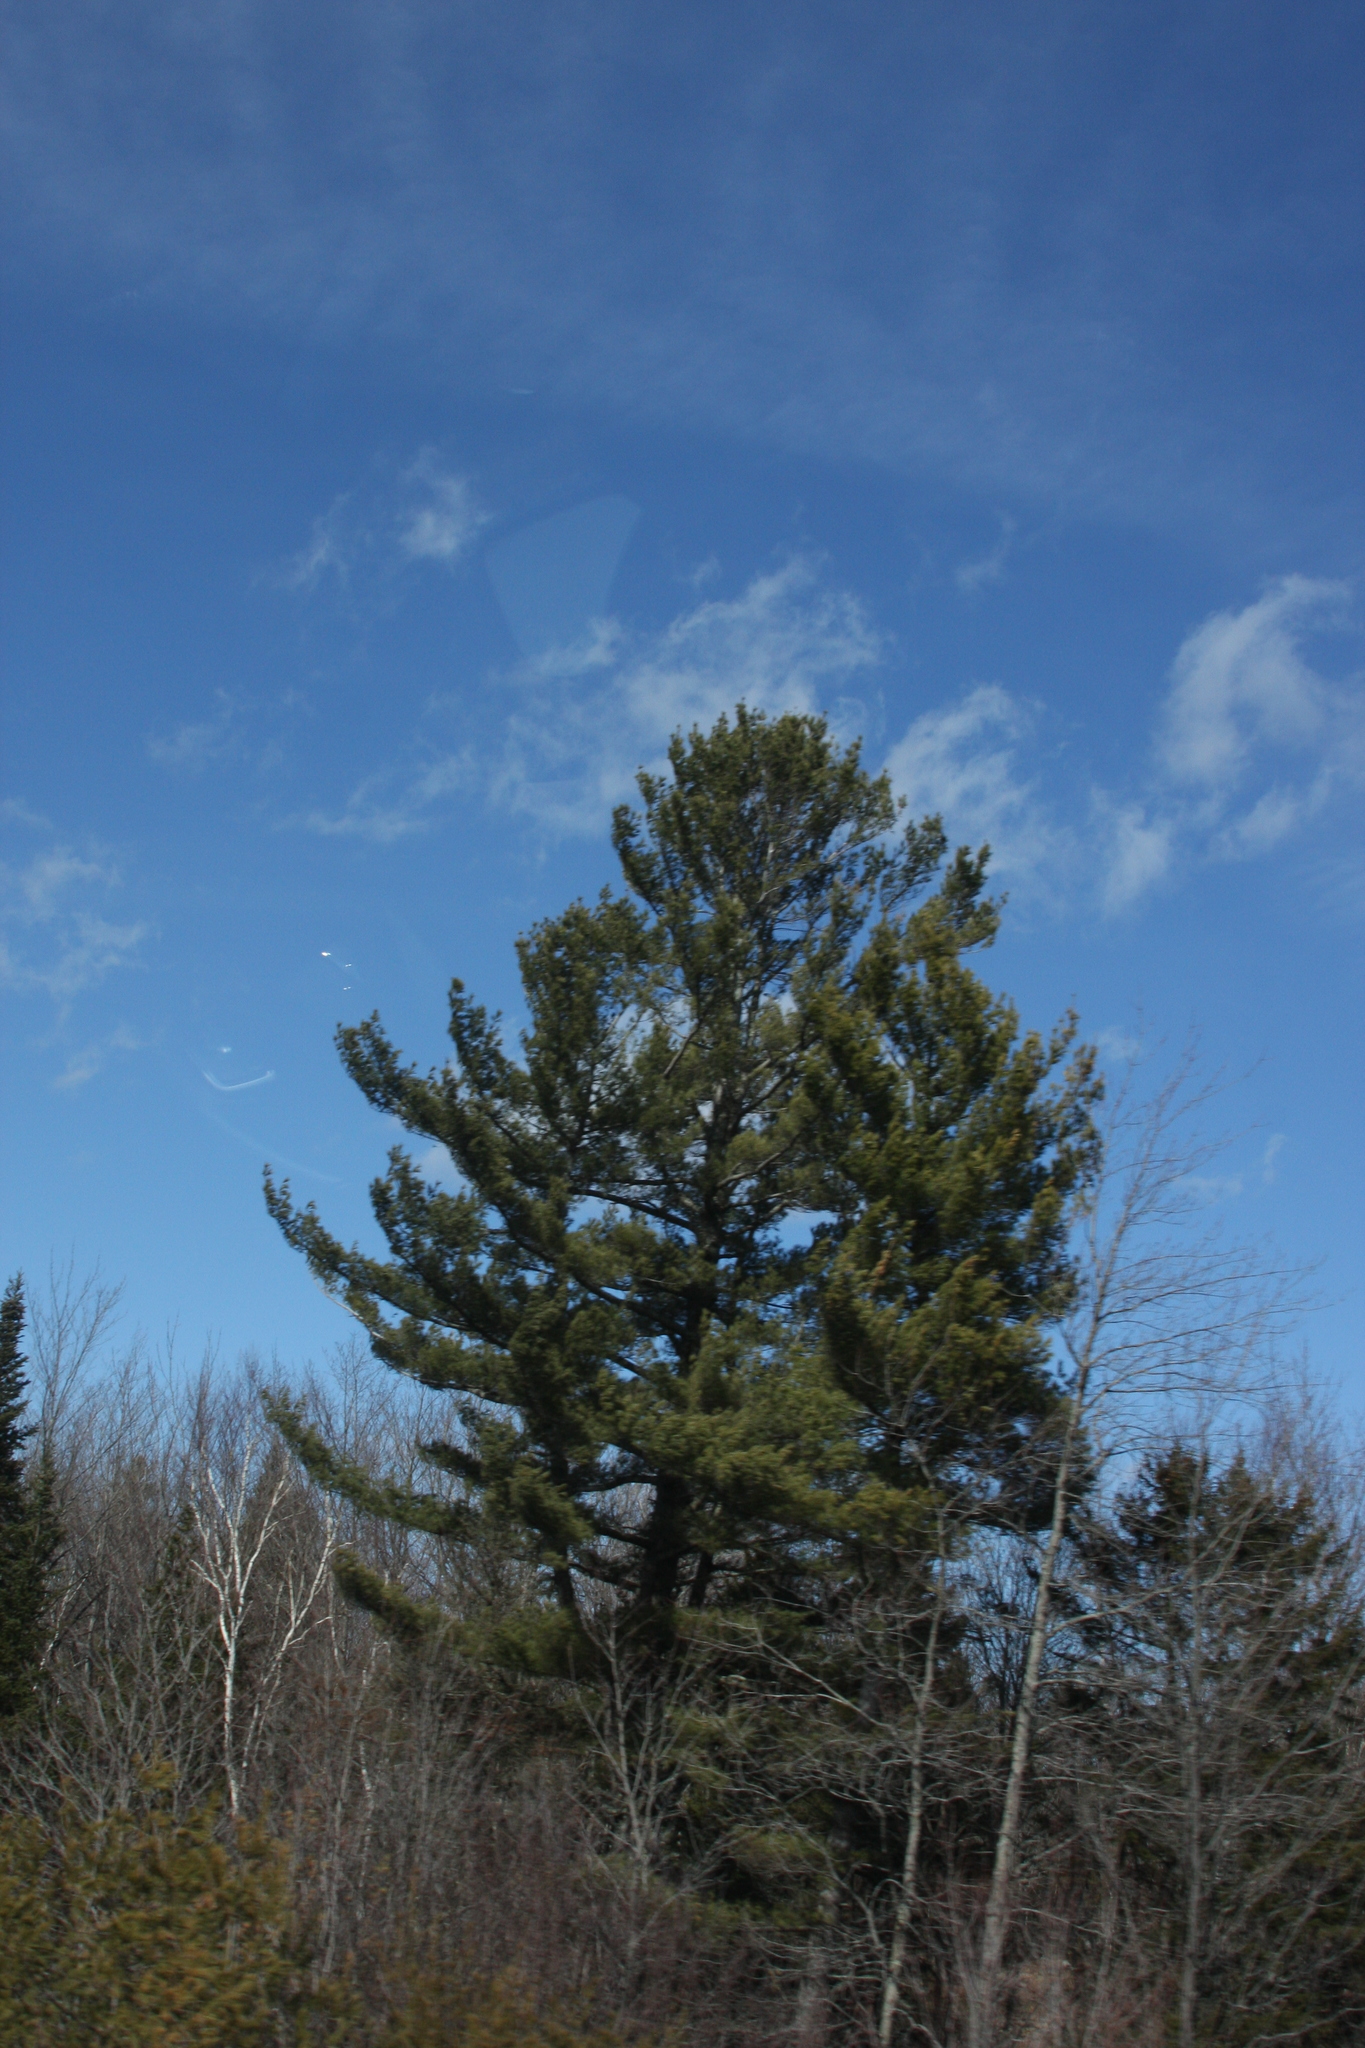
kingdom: Plantae
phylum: Tracheophyta
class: Pinopsida
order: Pinales
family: Pinaceae
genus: Pinus
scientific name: Pinus strobus
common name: Weymouth pine
